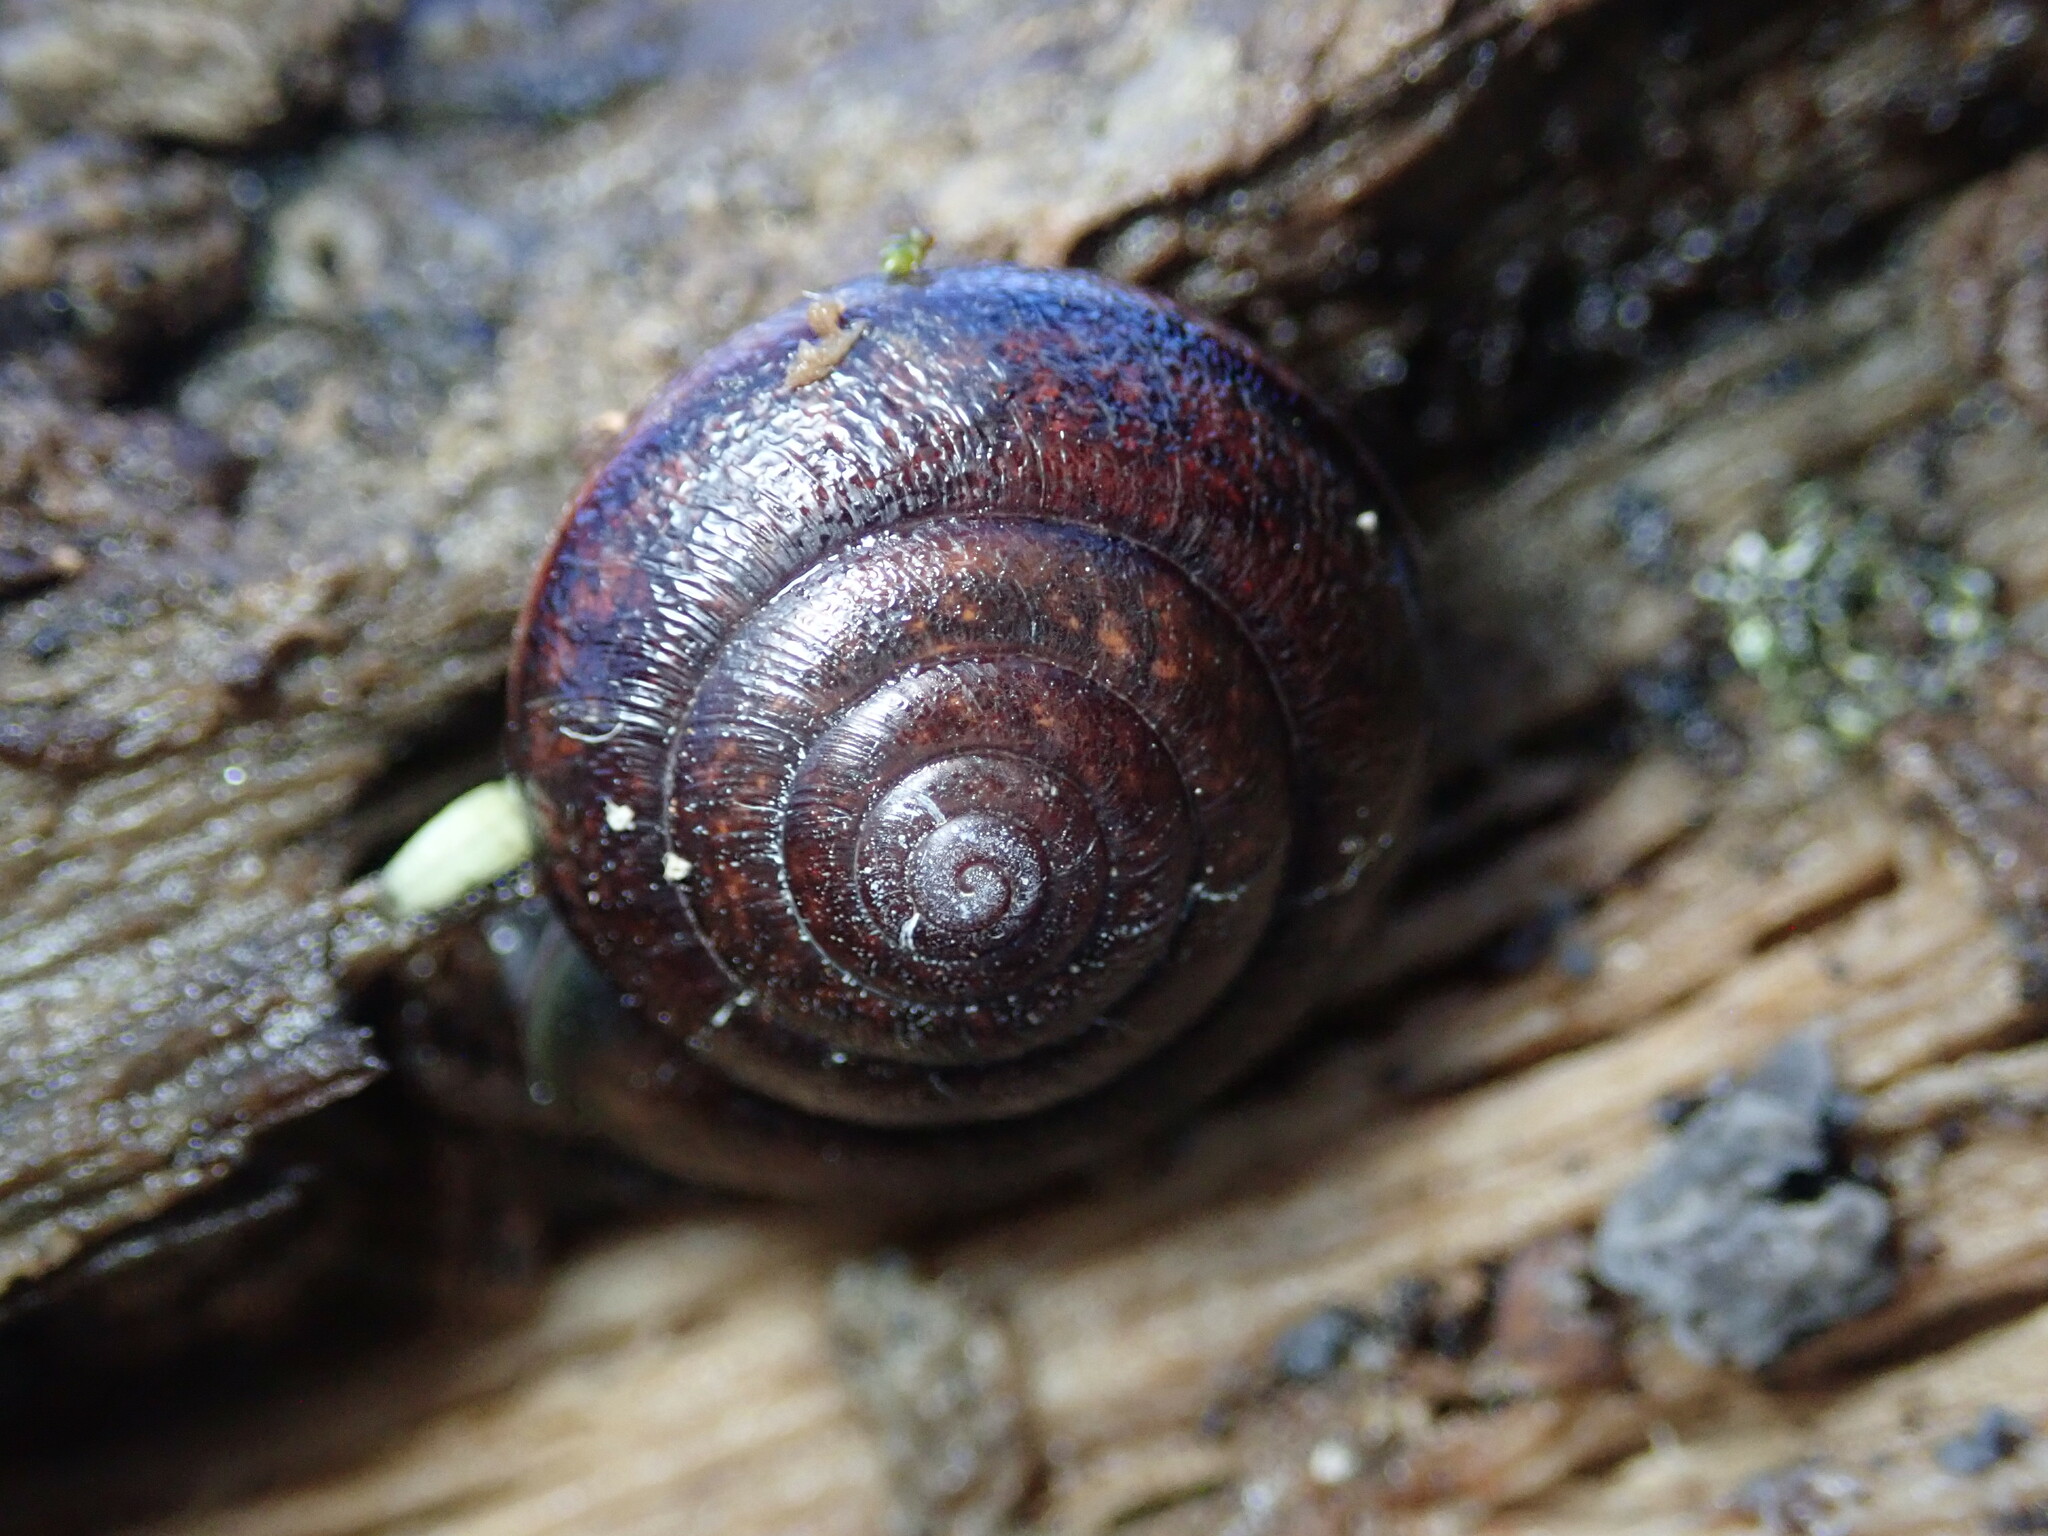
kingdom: Animalia
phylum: Mollusca
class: Gastropoda
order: Stylommatophora
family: Xanthonychidae
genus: Helminthoglypta
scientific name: Helminthoglypta sonoma
